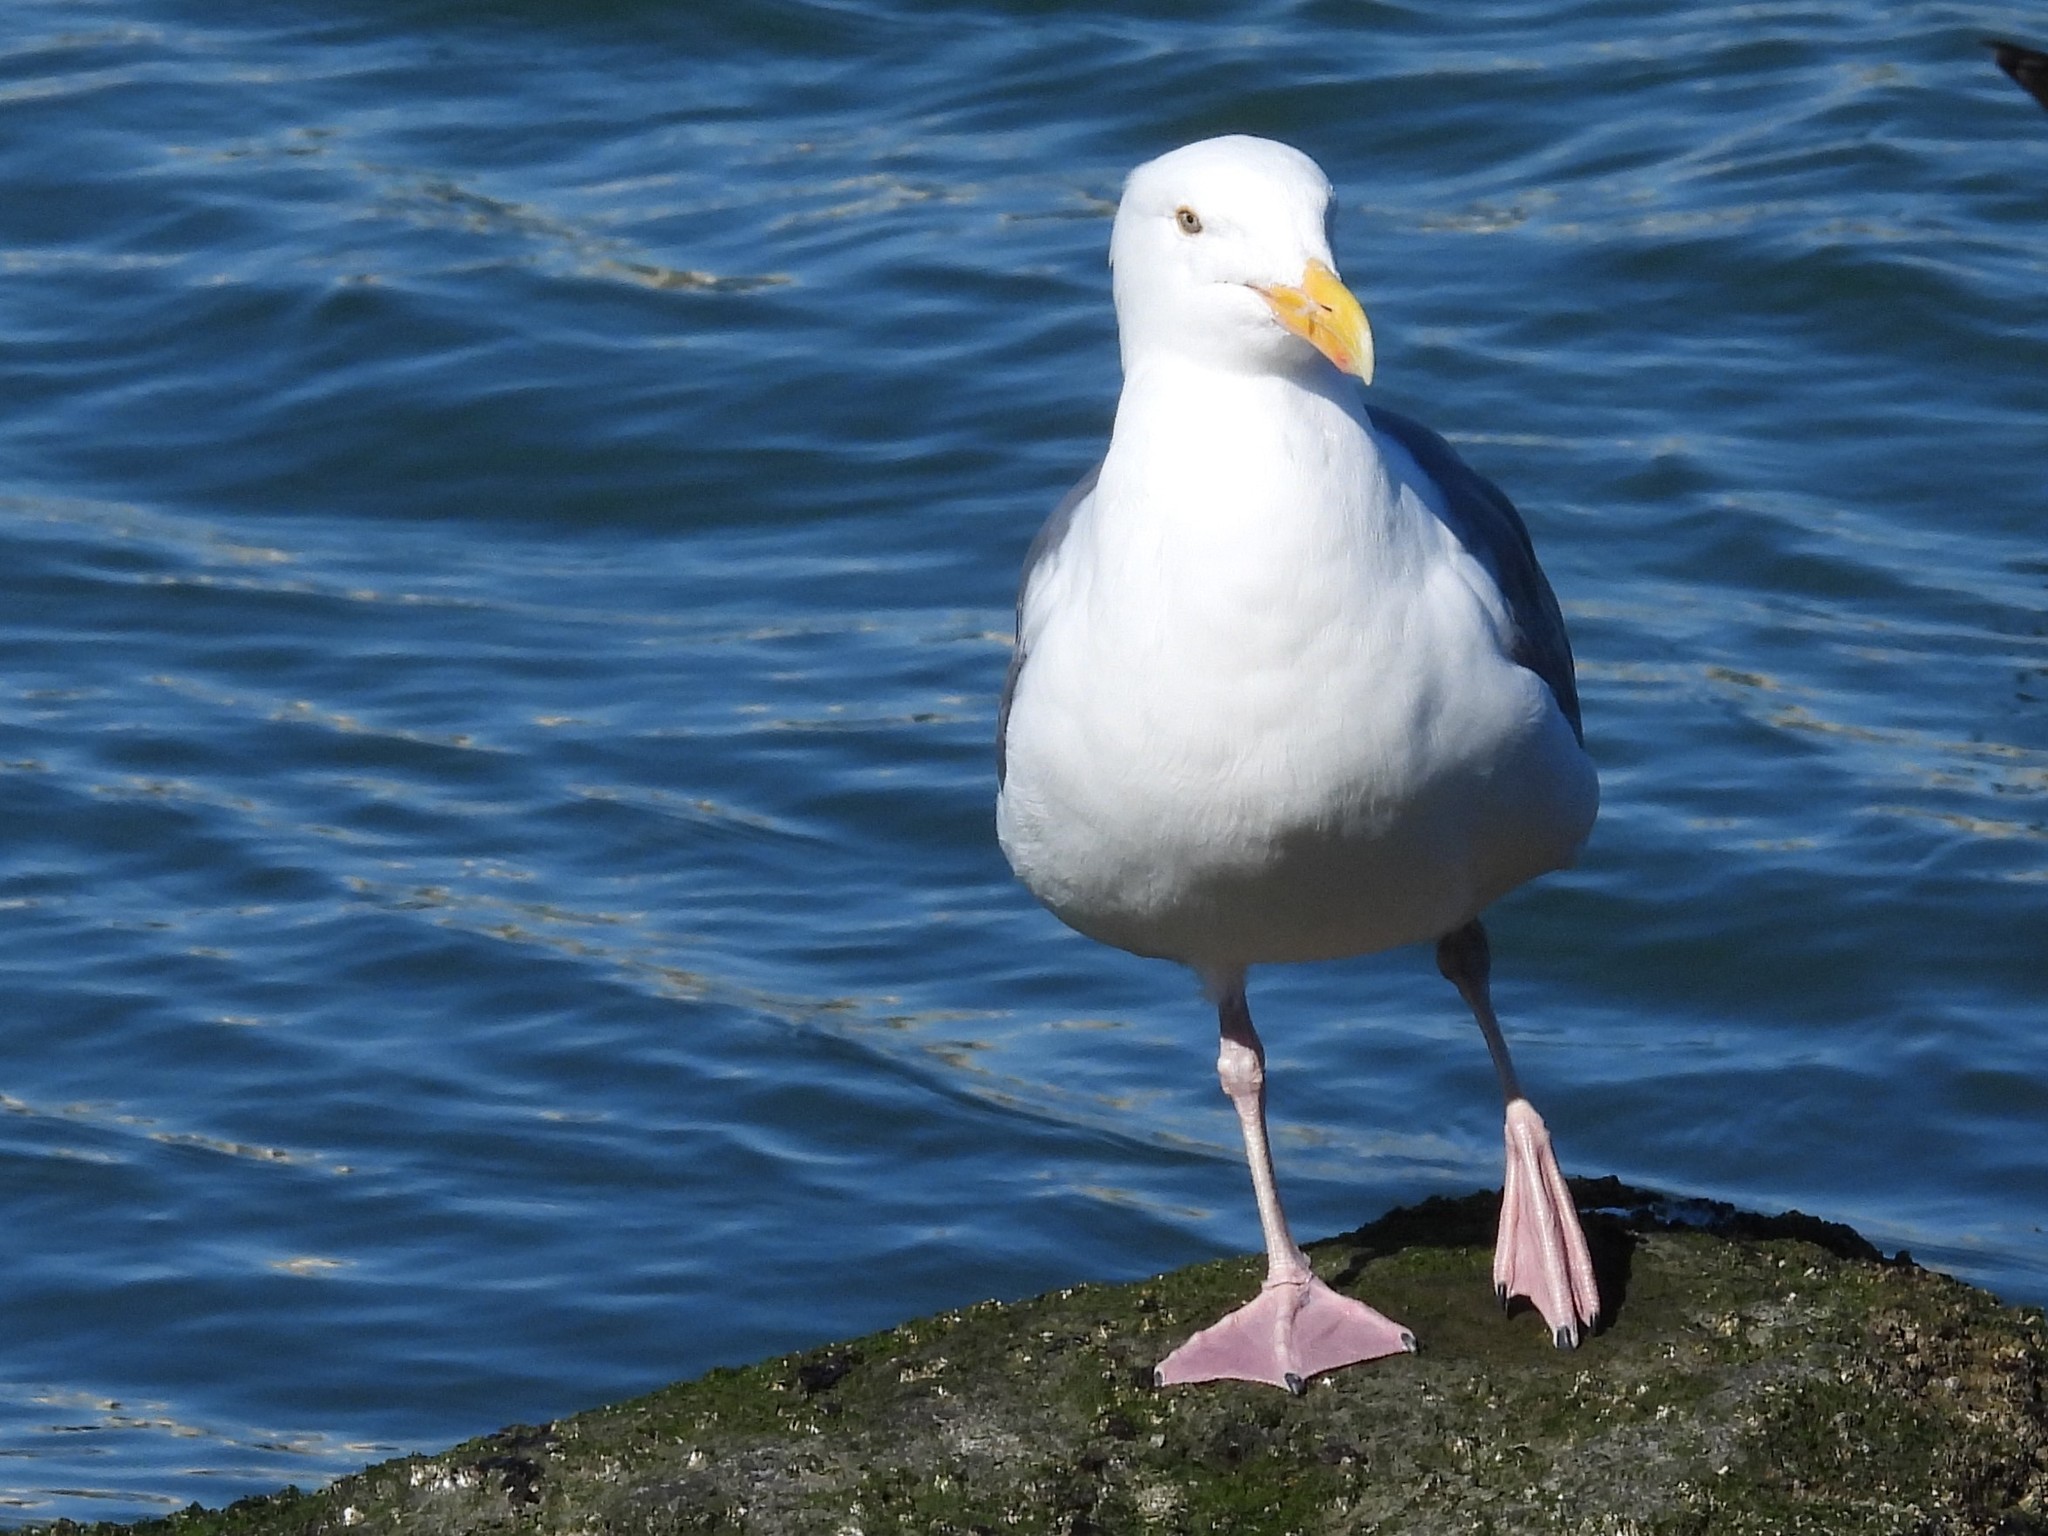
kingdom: Animalia
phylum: Chordata
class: Aves
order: Charadriiformes
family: Laridae
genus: Larus
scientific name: Larus occidentalis
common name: Western gull
